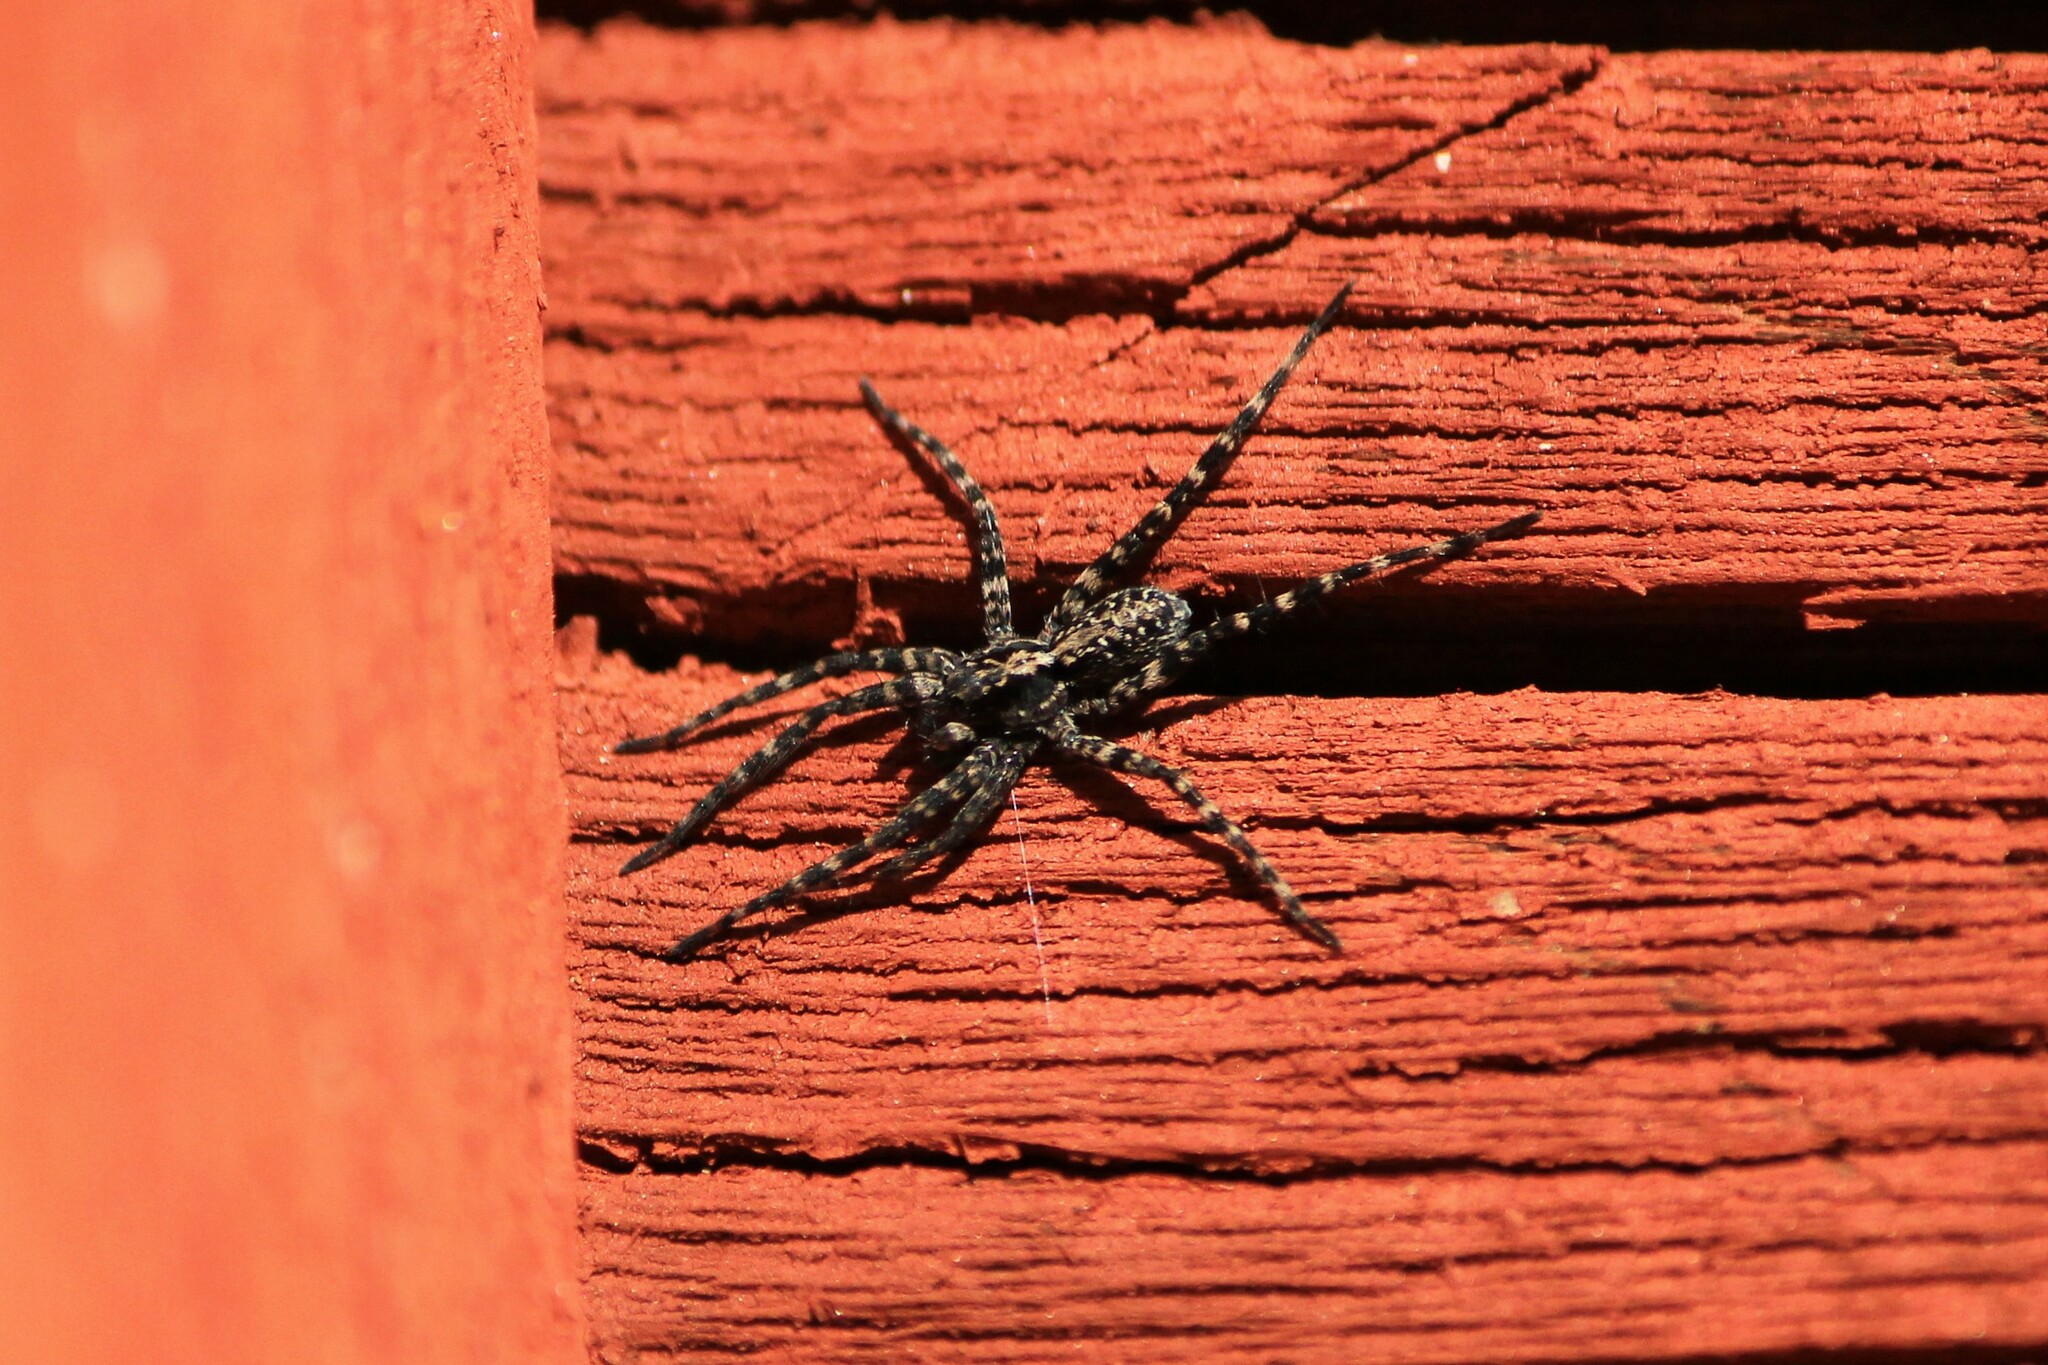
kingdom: Animalia
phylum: Arthropoda
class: Arachnida
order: Araneae
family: Lycosidae
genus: Acantholycosa
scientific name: Acantholycosa lignaria
